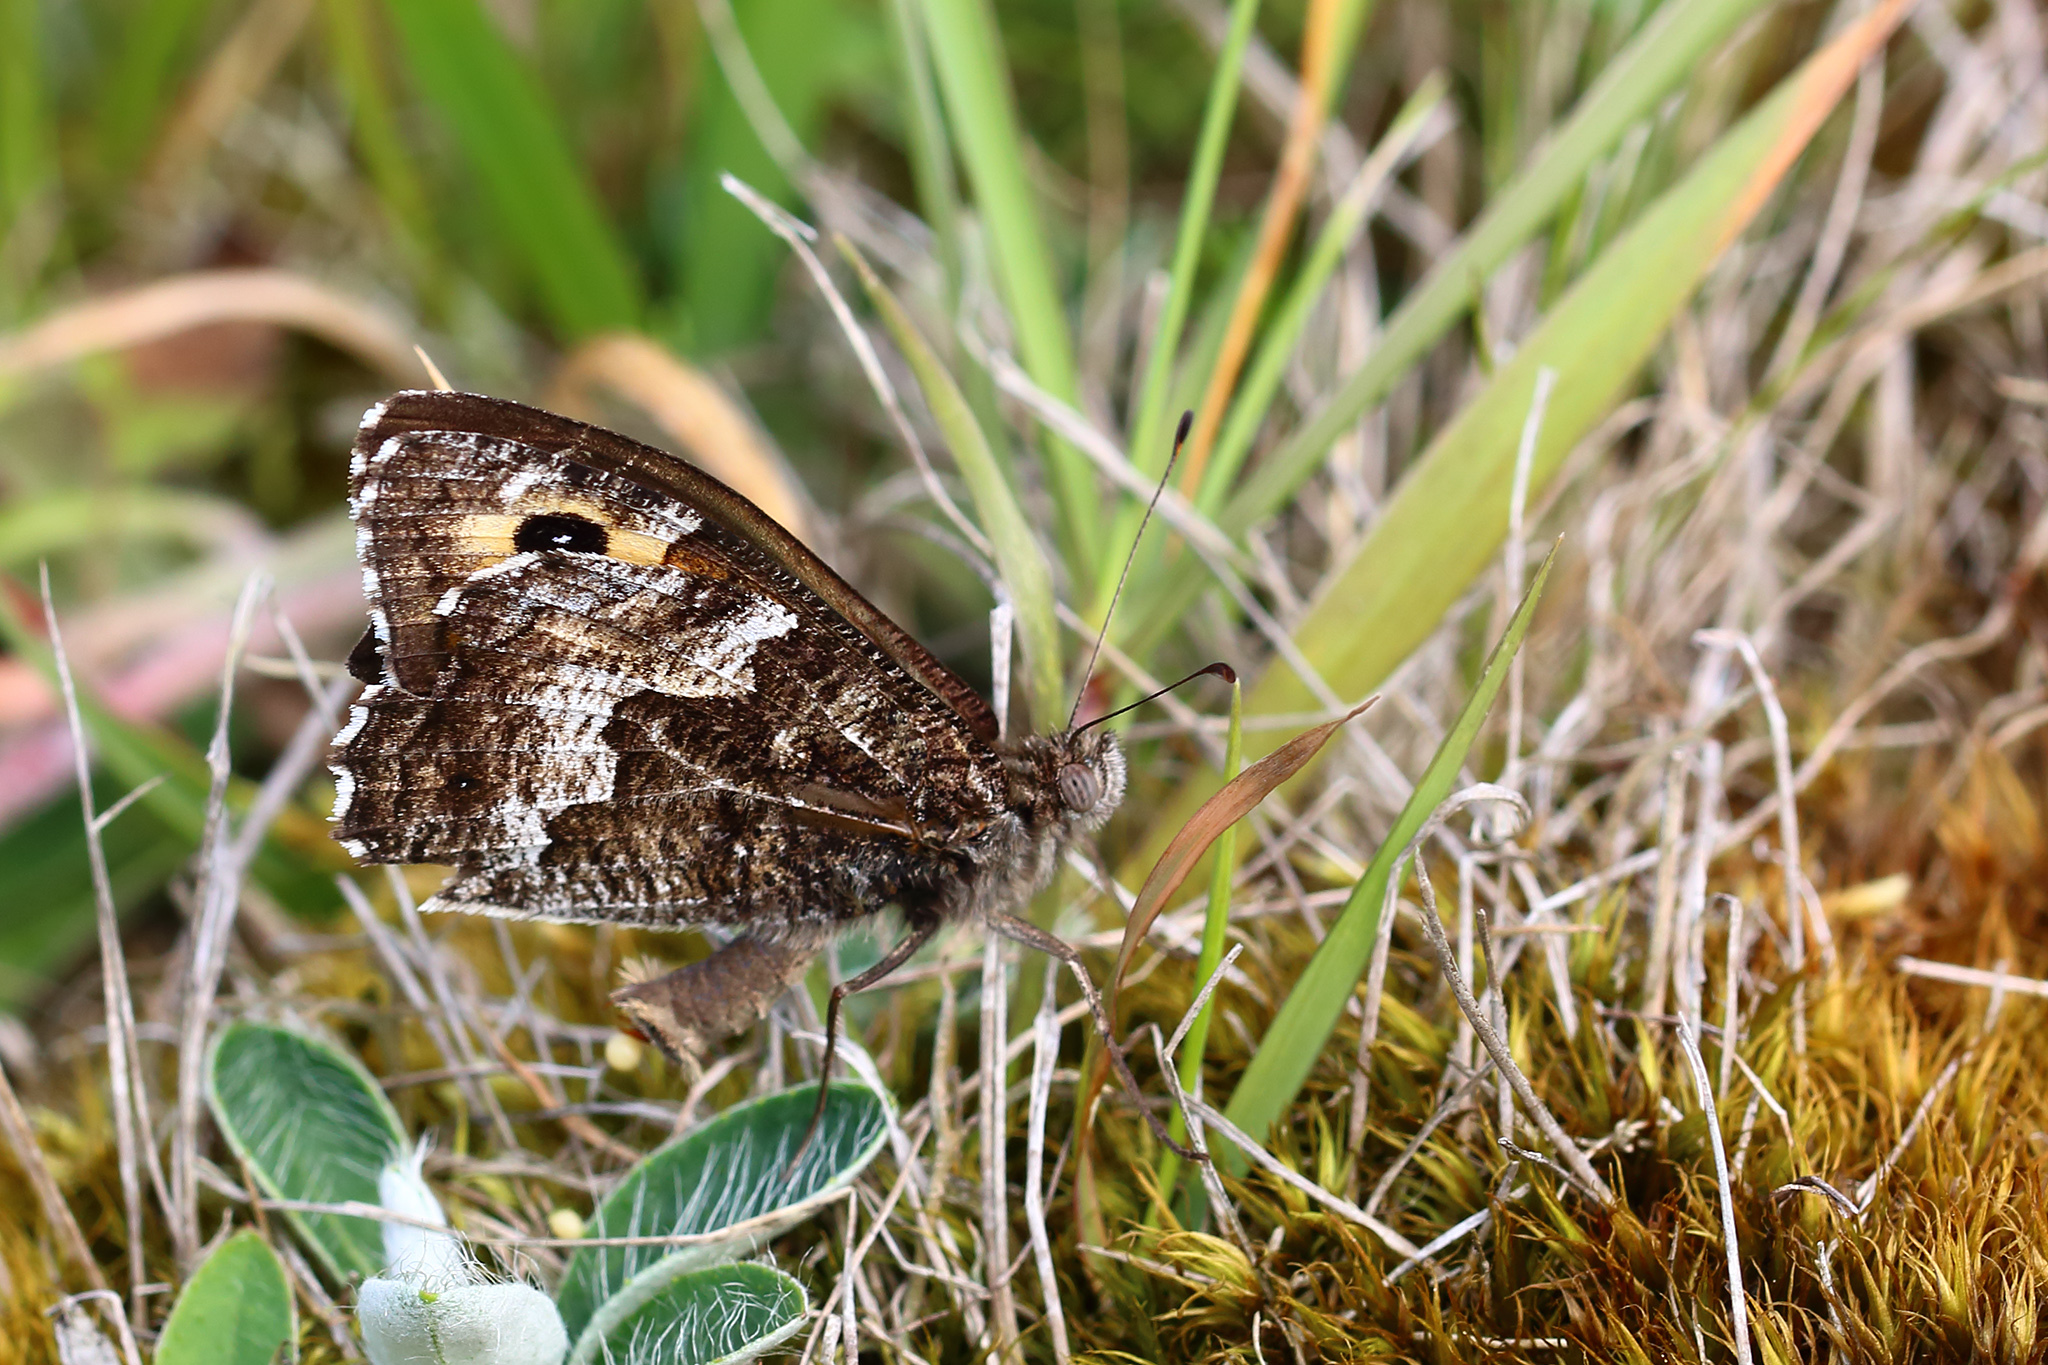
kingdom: Animalia
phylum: Arthropoda
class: Insecta
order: Lepidoptera
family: Nymphalidae
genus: Hipparchia
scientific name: Hipparchia semele
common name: Grayling
